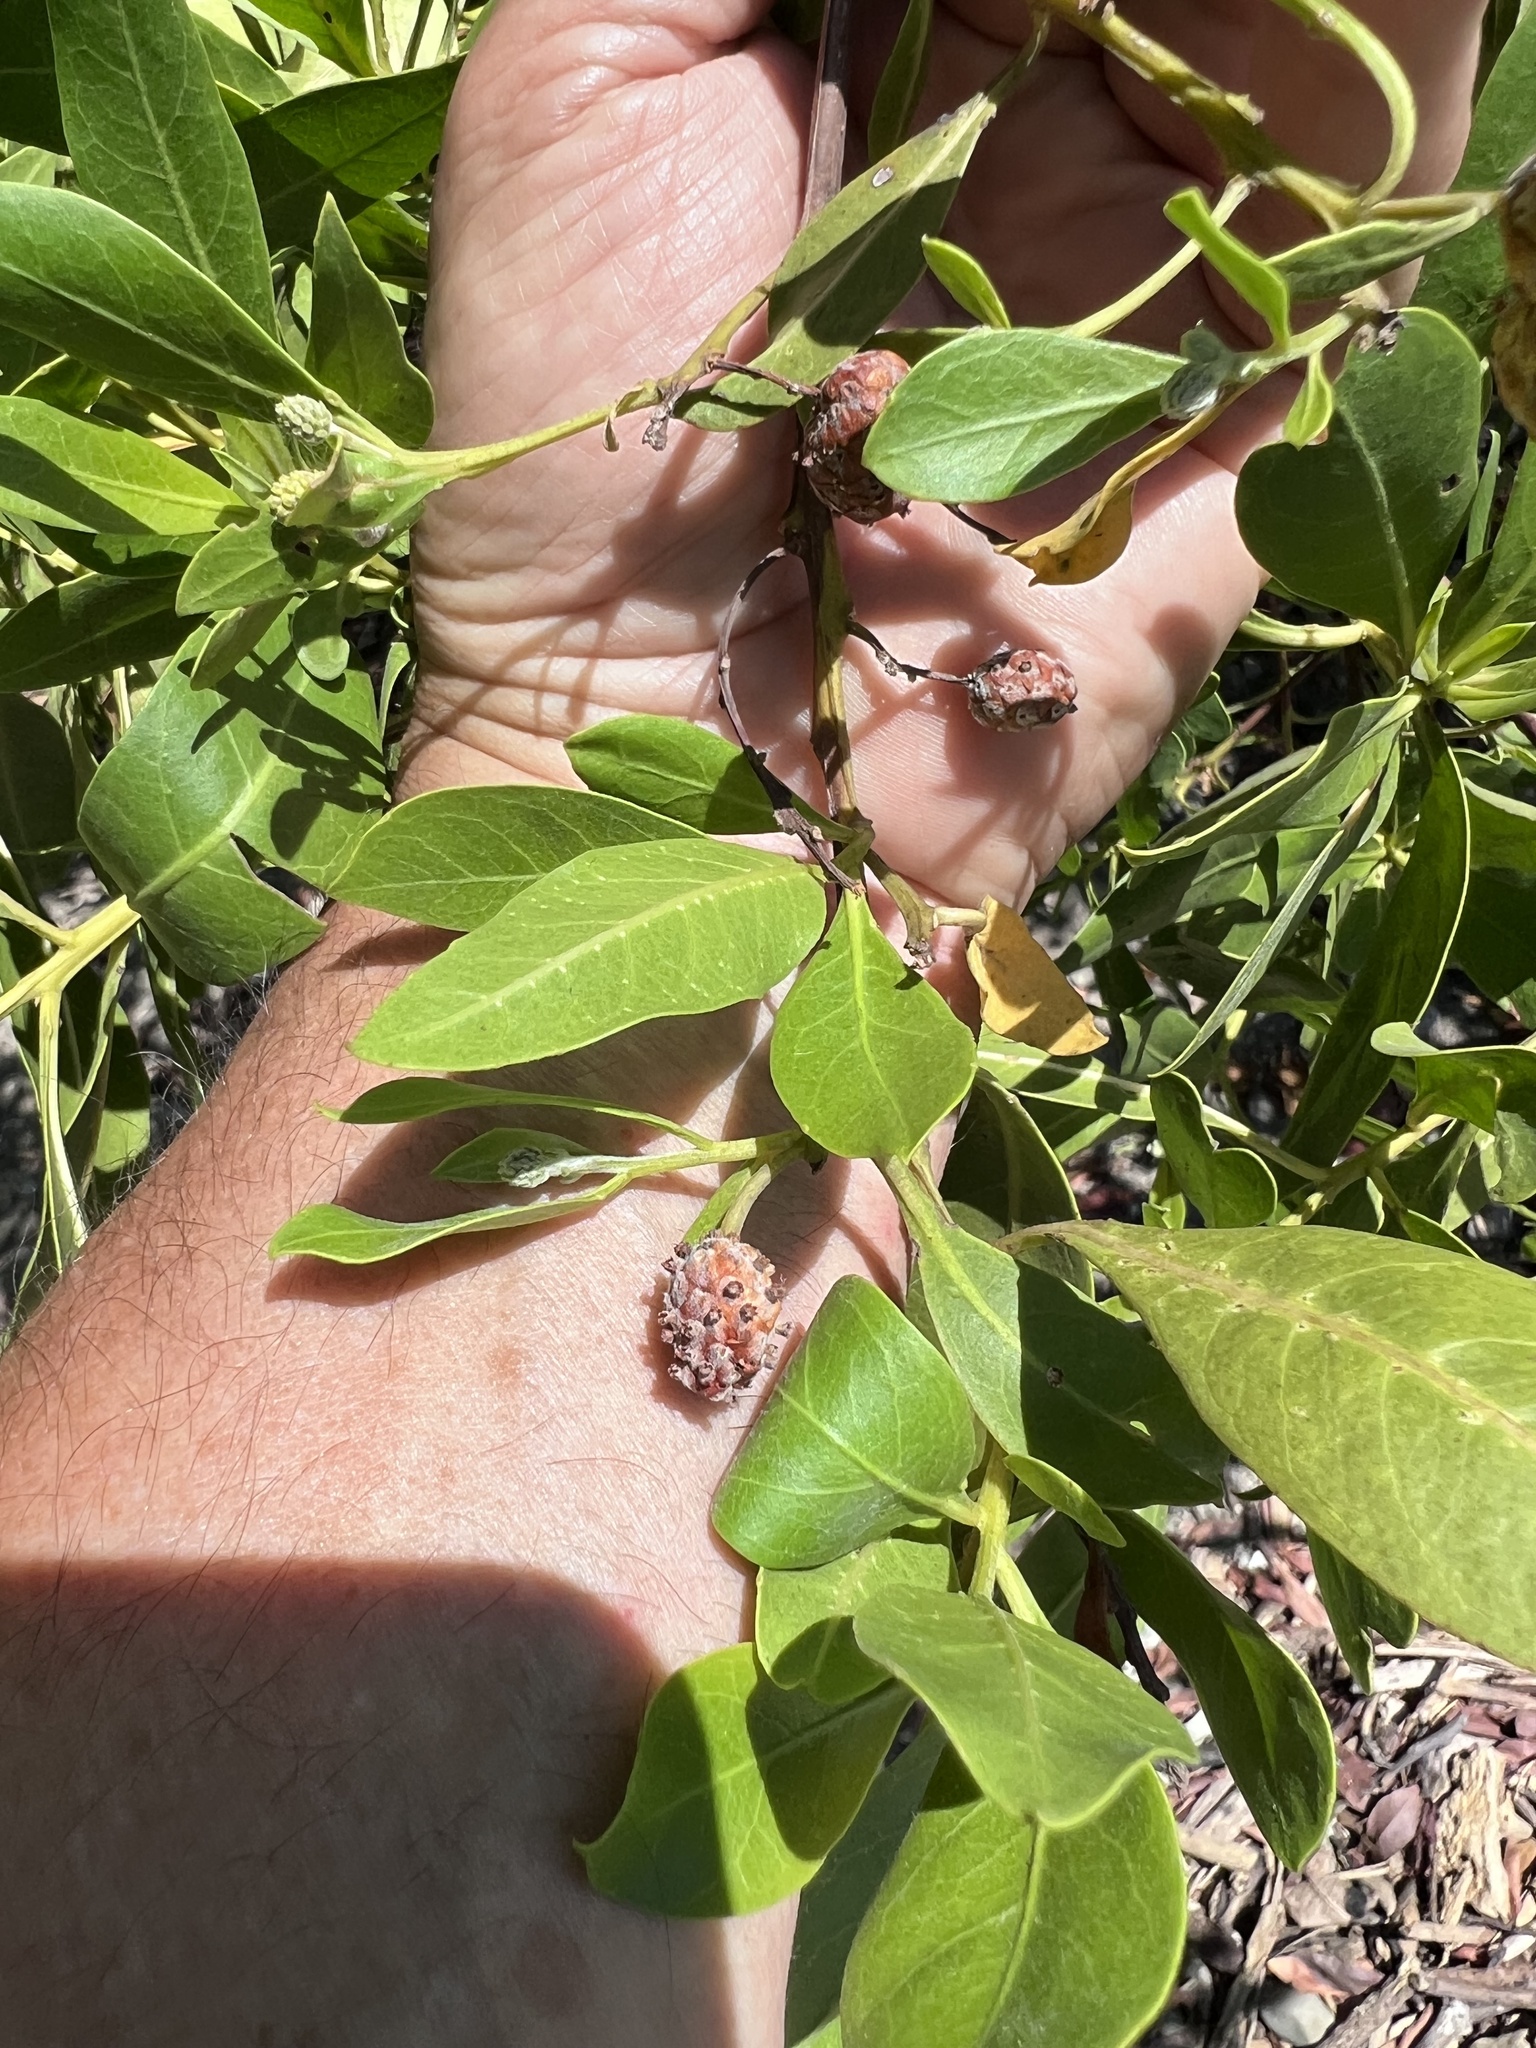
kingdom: Plantae
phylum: Tracheophyta
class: Magnoliopsida
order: Myrtales
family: Combretaceae
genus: Conocarpus
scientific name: Conocarpus erectus
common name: Button mangrove
